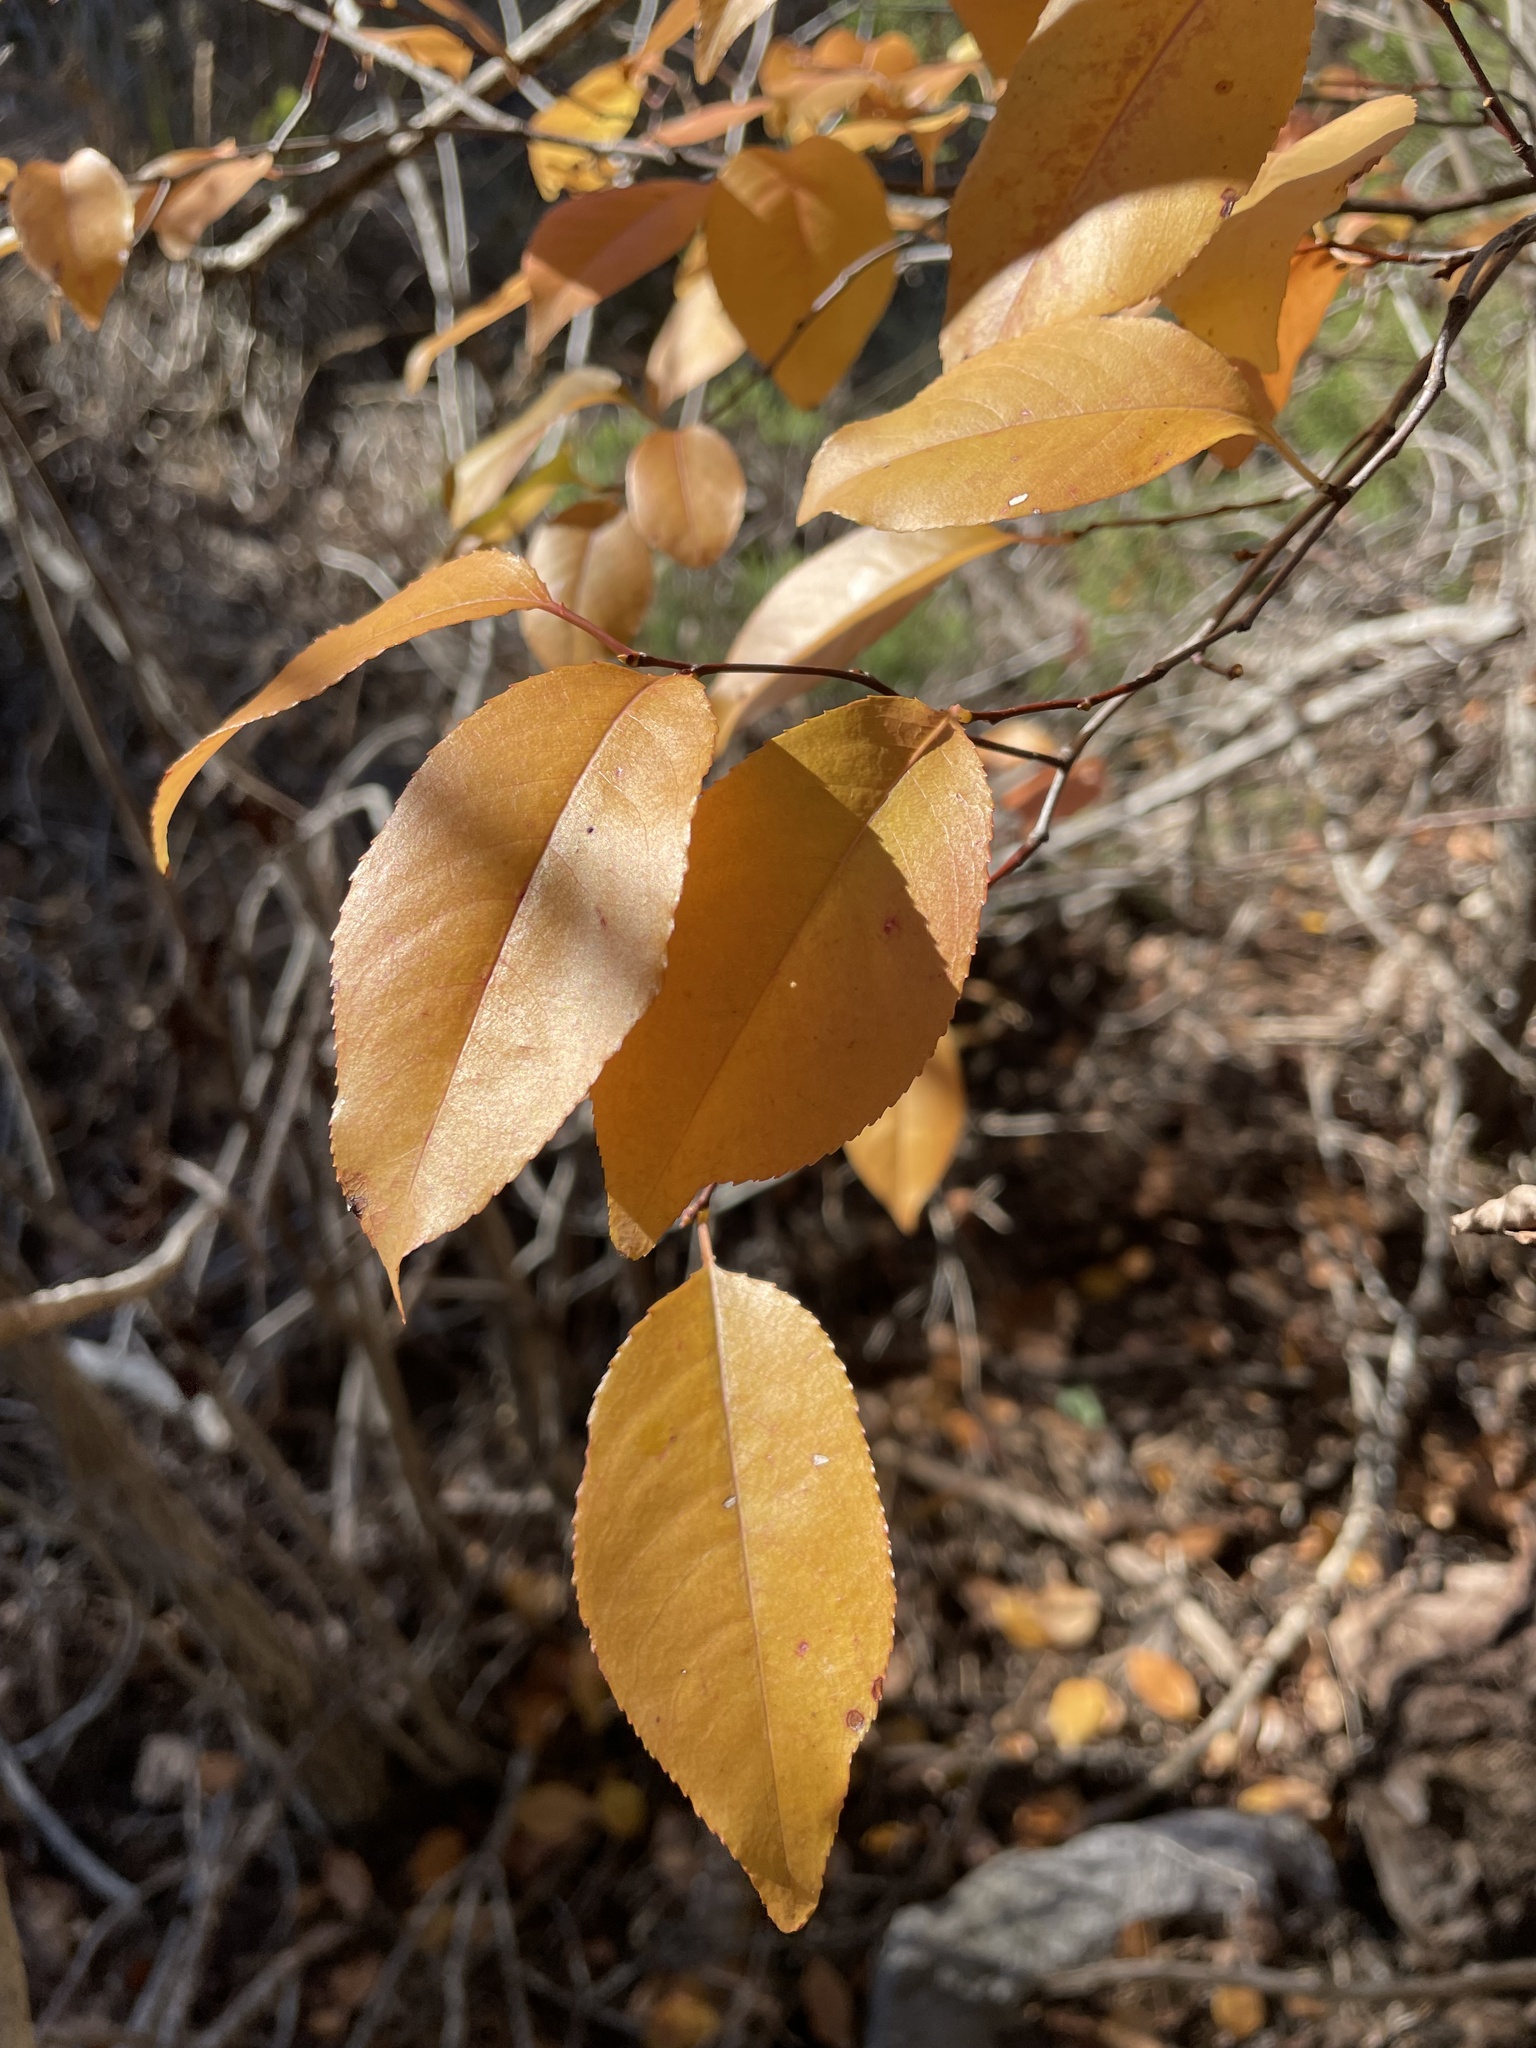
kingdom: Plantae
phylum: Tracheophyta
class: Magnoliopsida
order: Rosales
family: Rosaceae
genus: Prunus
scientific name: Prunus serotina
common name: Black cherry
